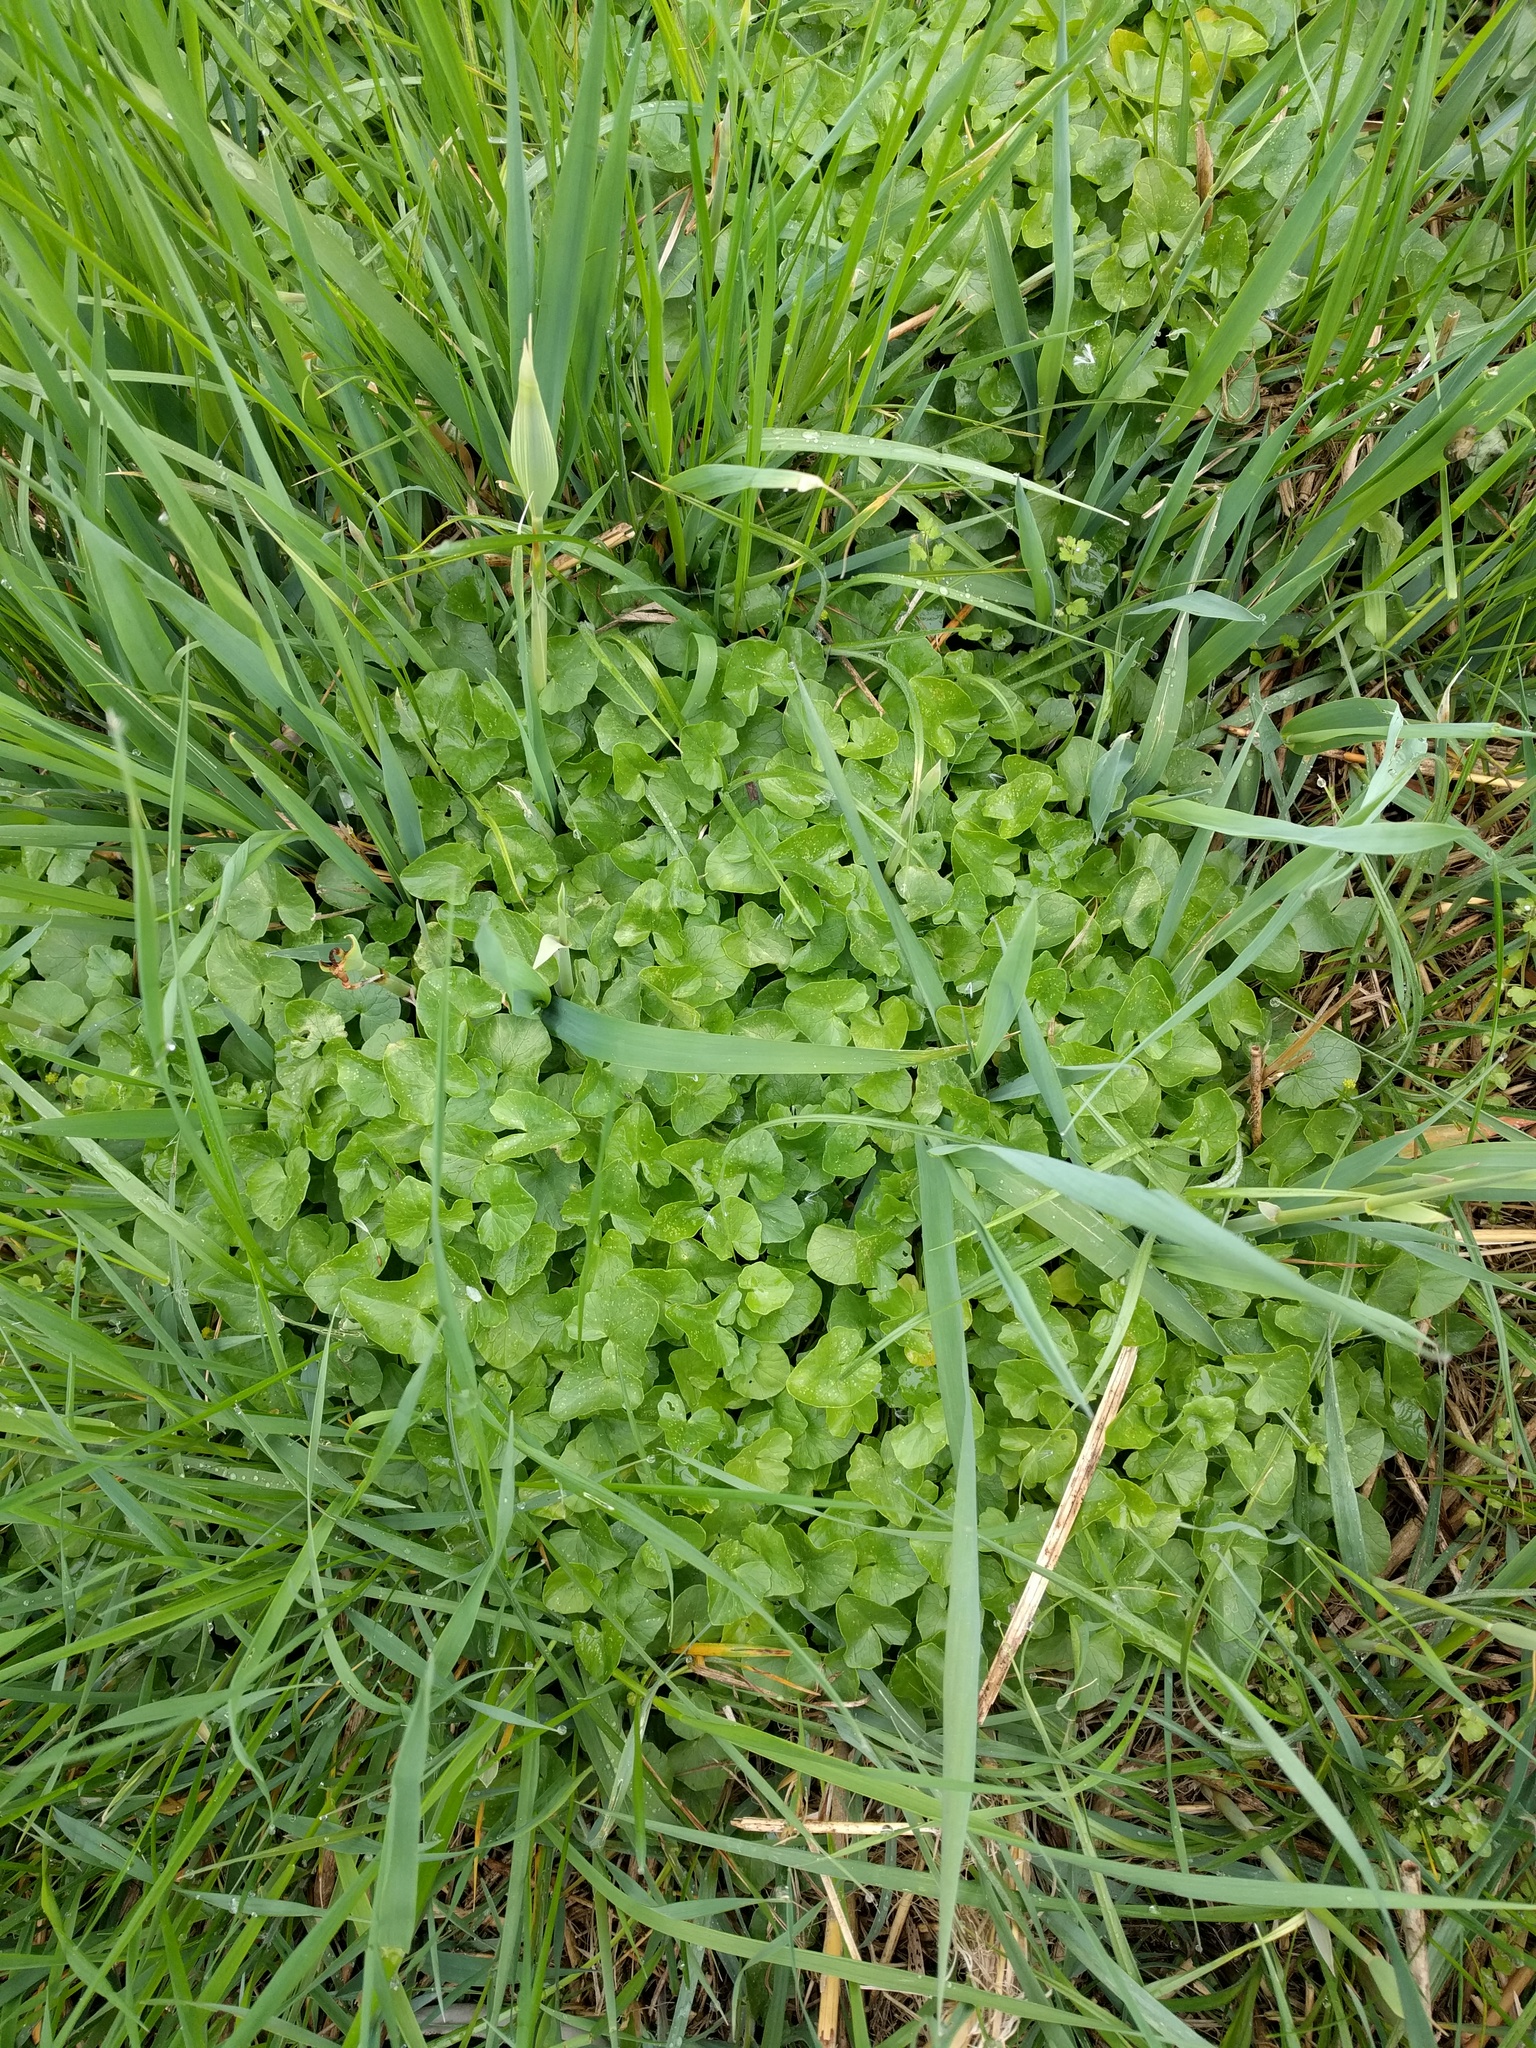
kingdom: Plantae
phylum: Tracheophyta
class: Magnoliopsida
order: Ranunculales
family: Ranunculaceae
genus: Ficaria
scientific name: Ficaria verna
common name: Lesser celandine
